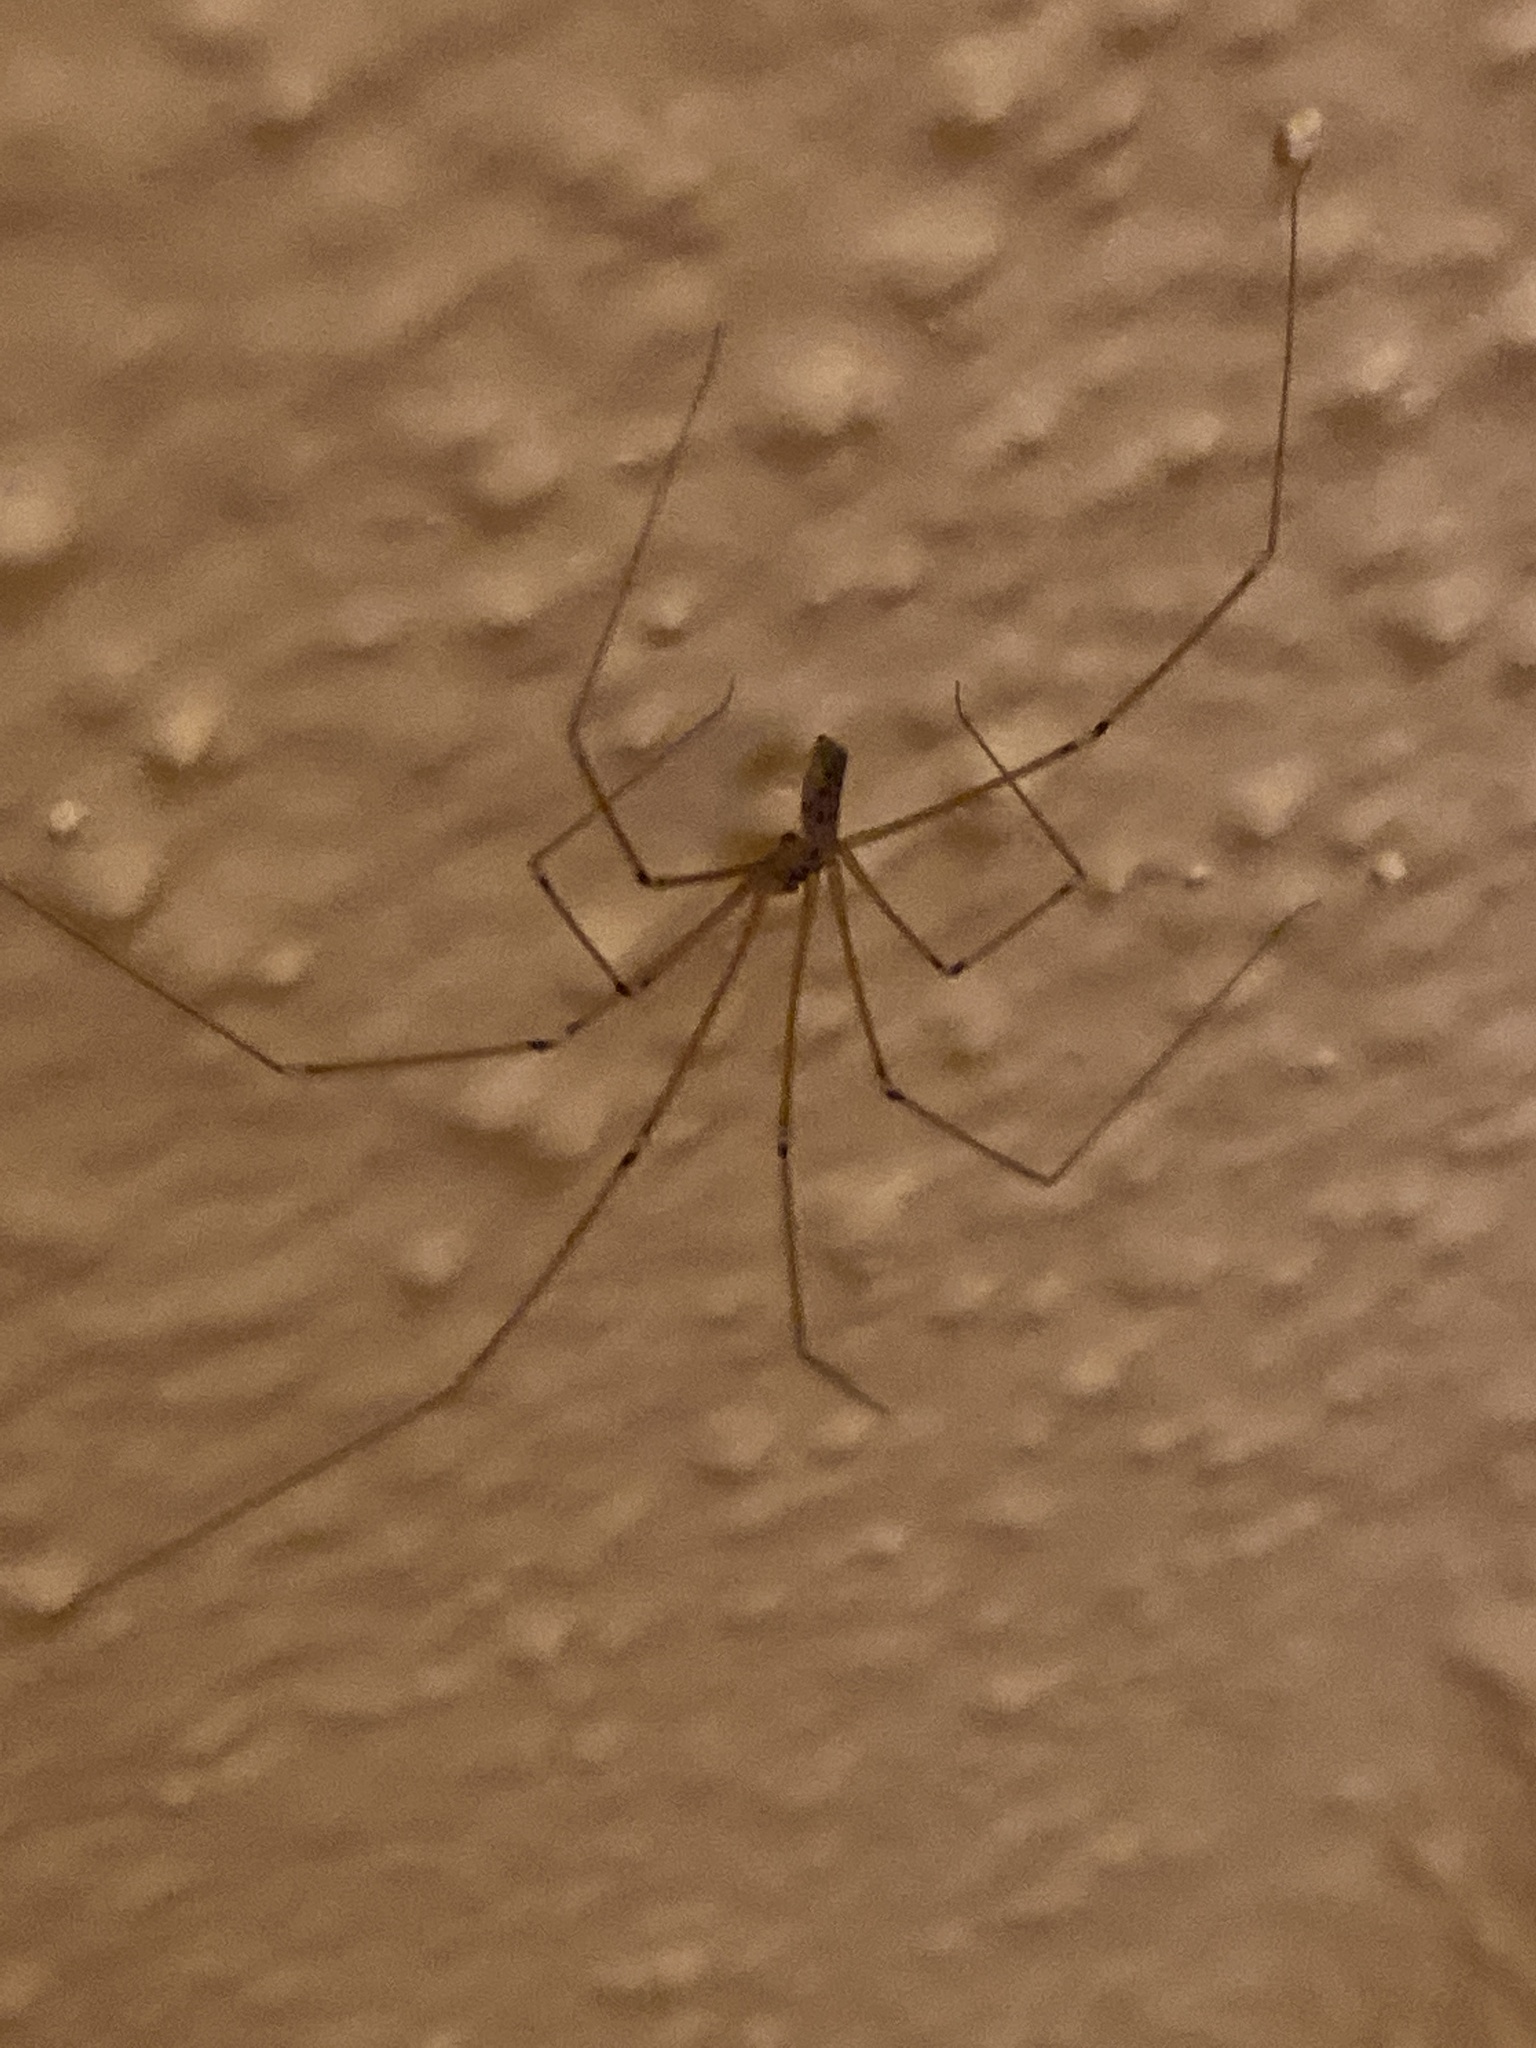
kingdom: Animalia
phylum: Arthropoda
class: Arachnida
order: Araneae
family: Pholcidae
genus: Pholcus
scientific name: Pholcus phalangioides
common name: Longbodied cellar spider
